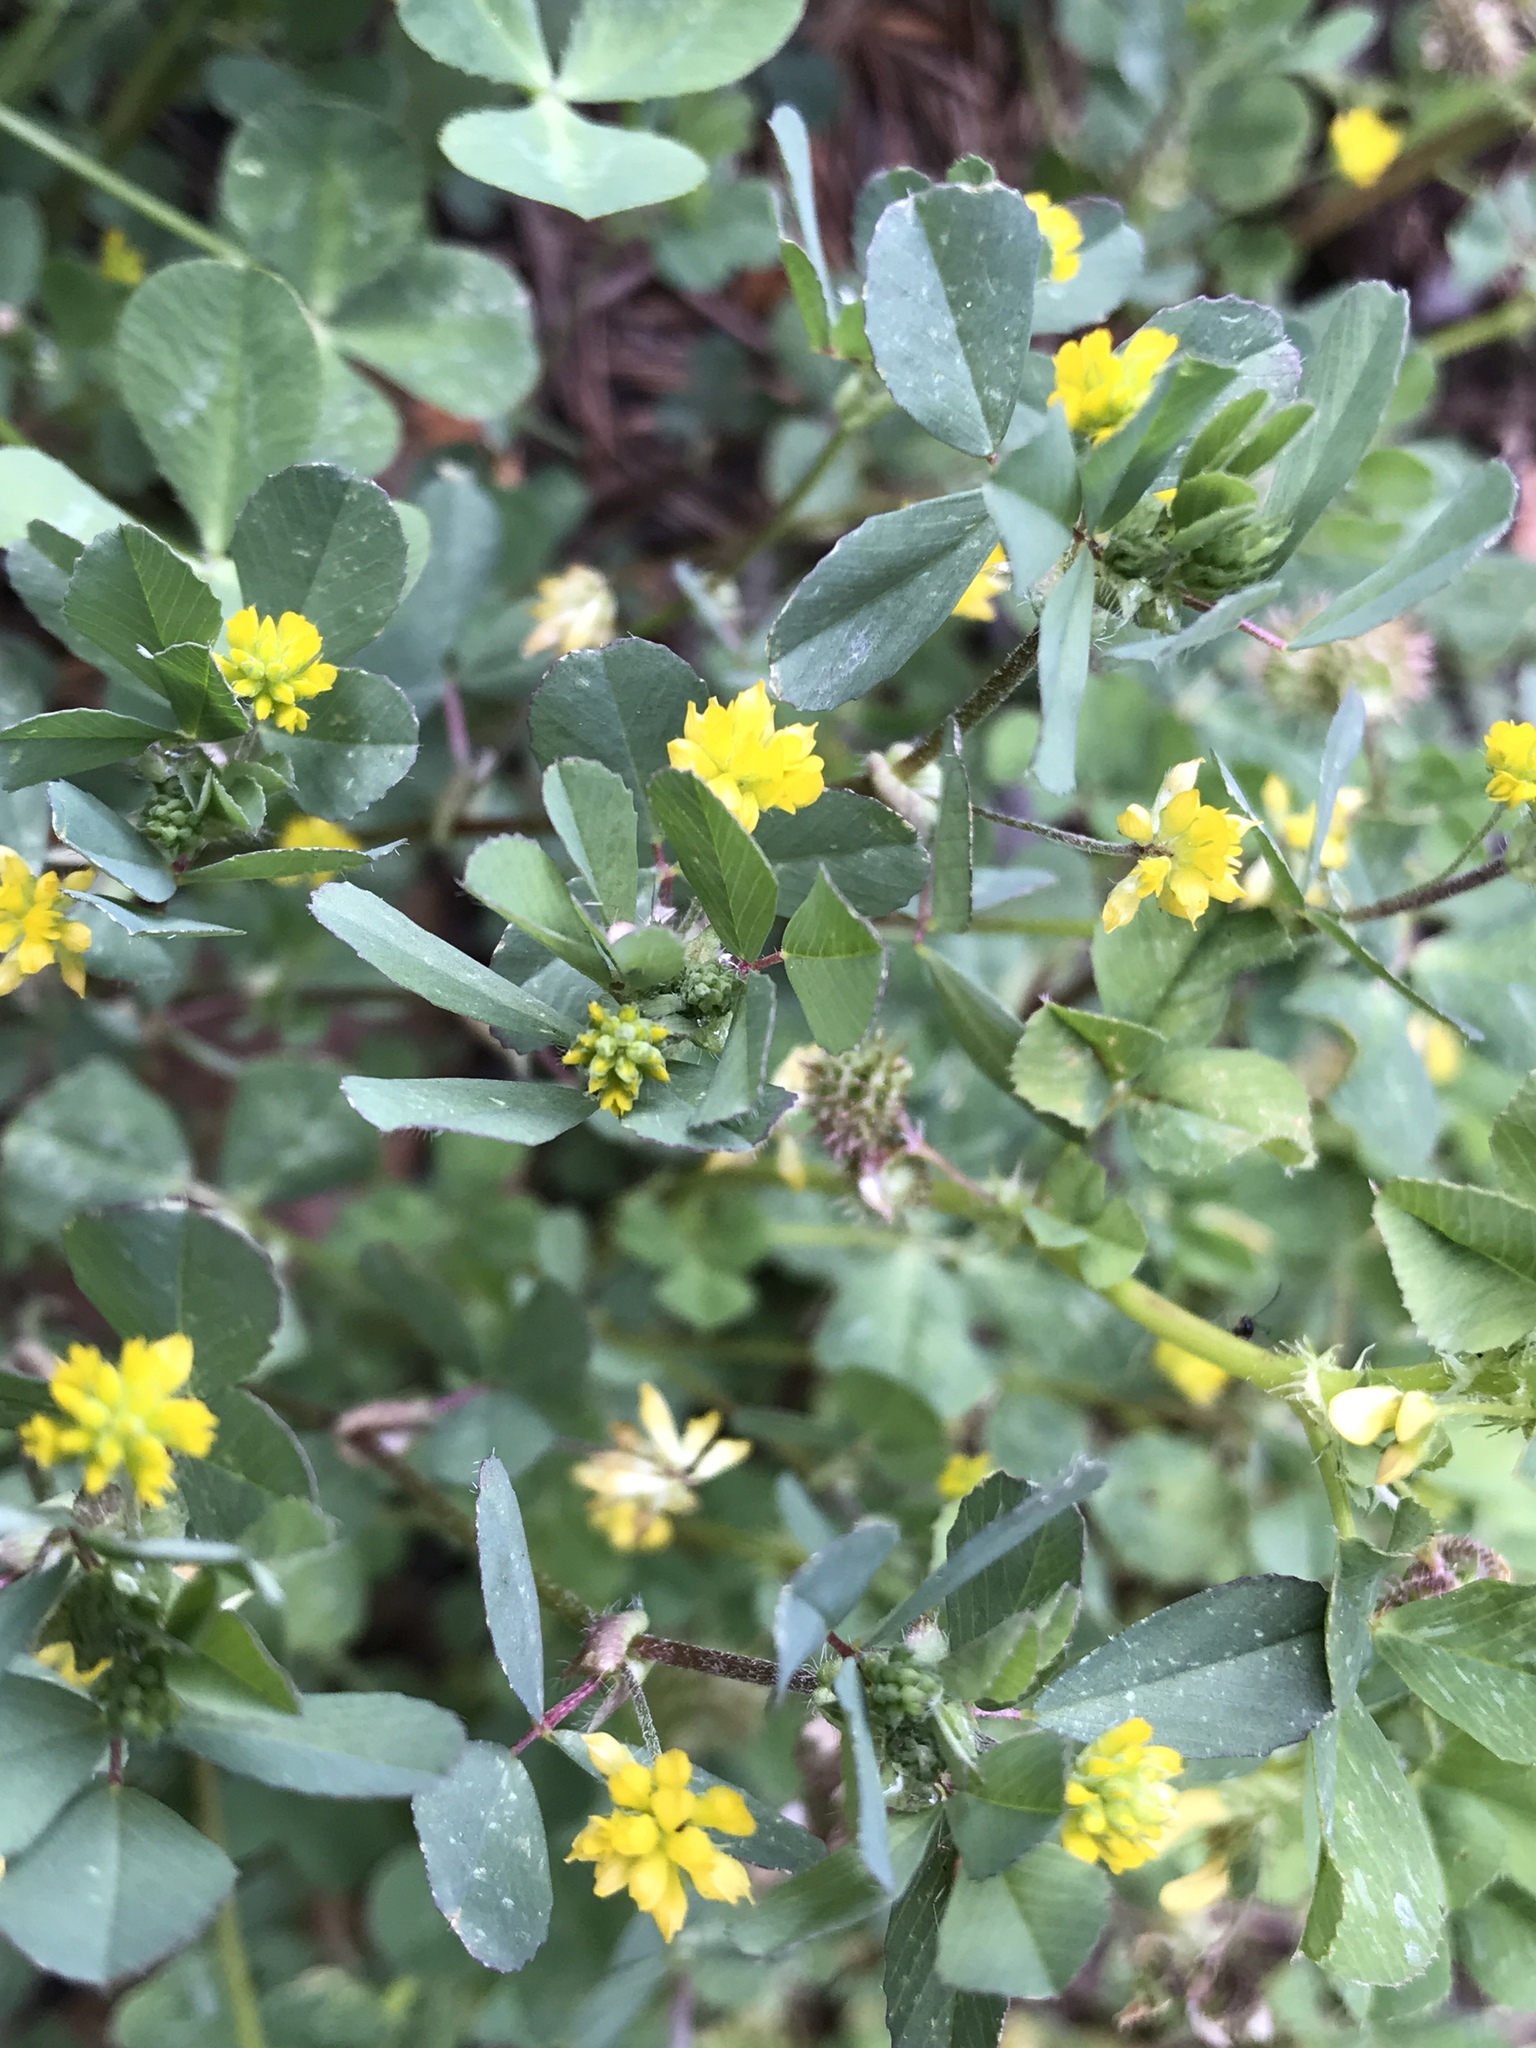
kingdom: Plantae
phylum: Tracheophyta
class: Magnoliopsida
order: Fabales
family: Fabaceae
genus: Trifolium
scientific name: Trifolium dubium
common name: Suckling clover
